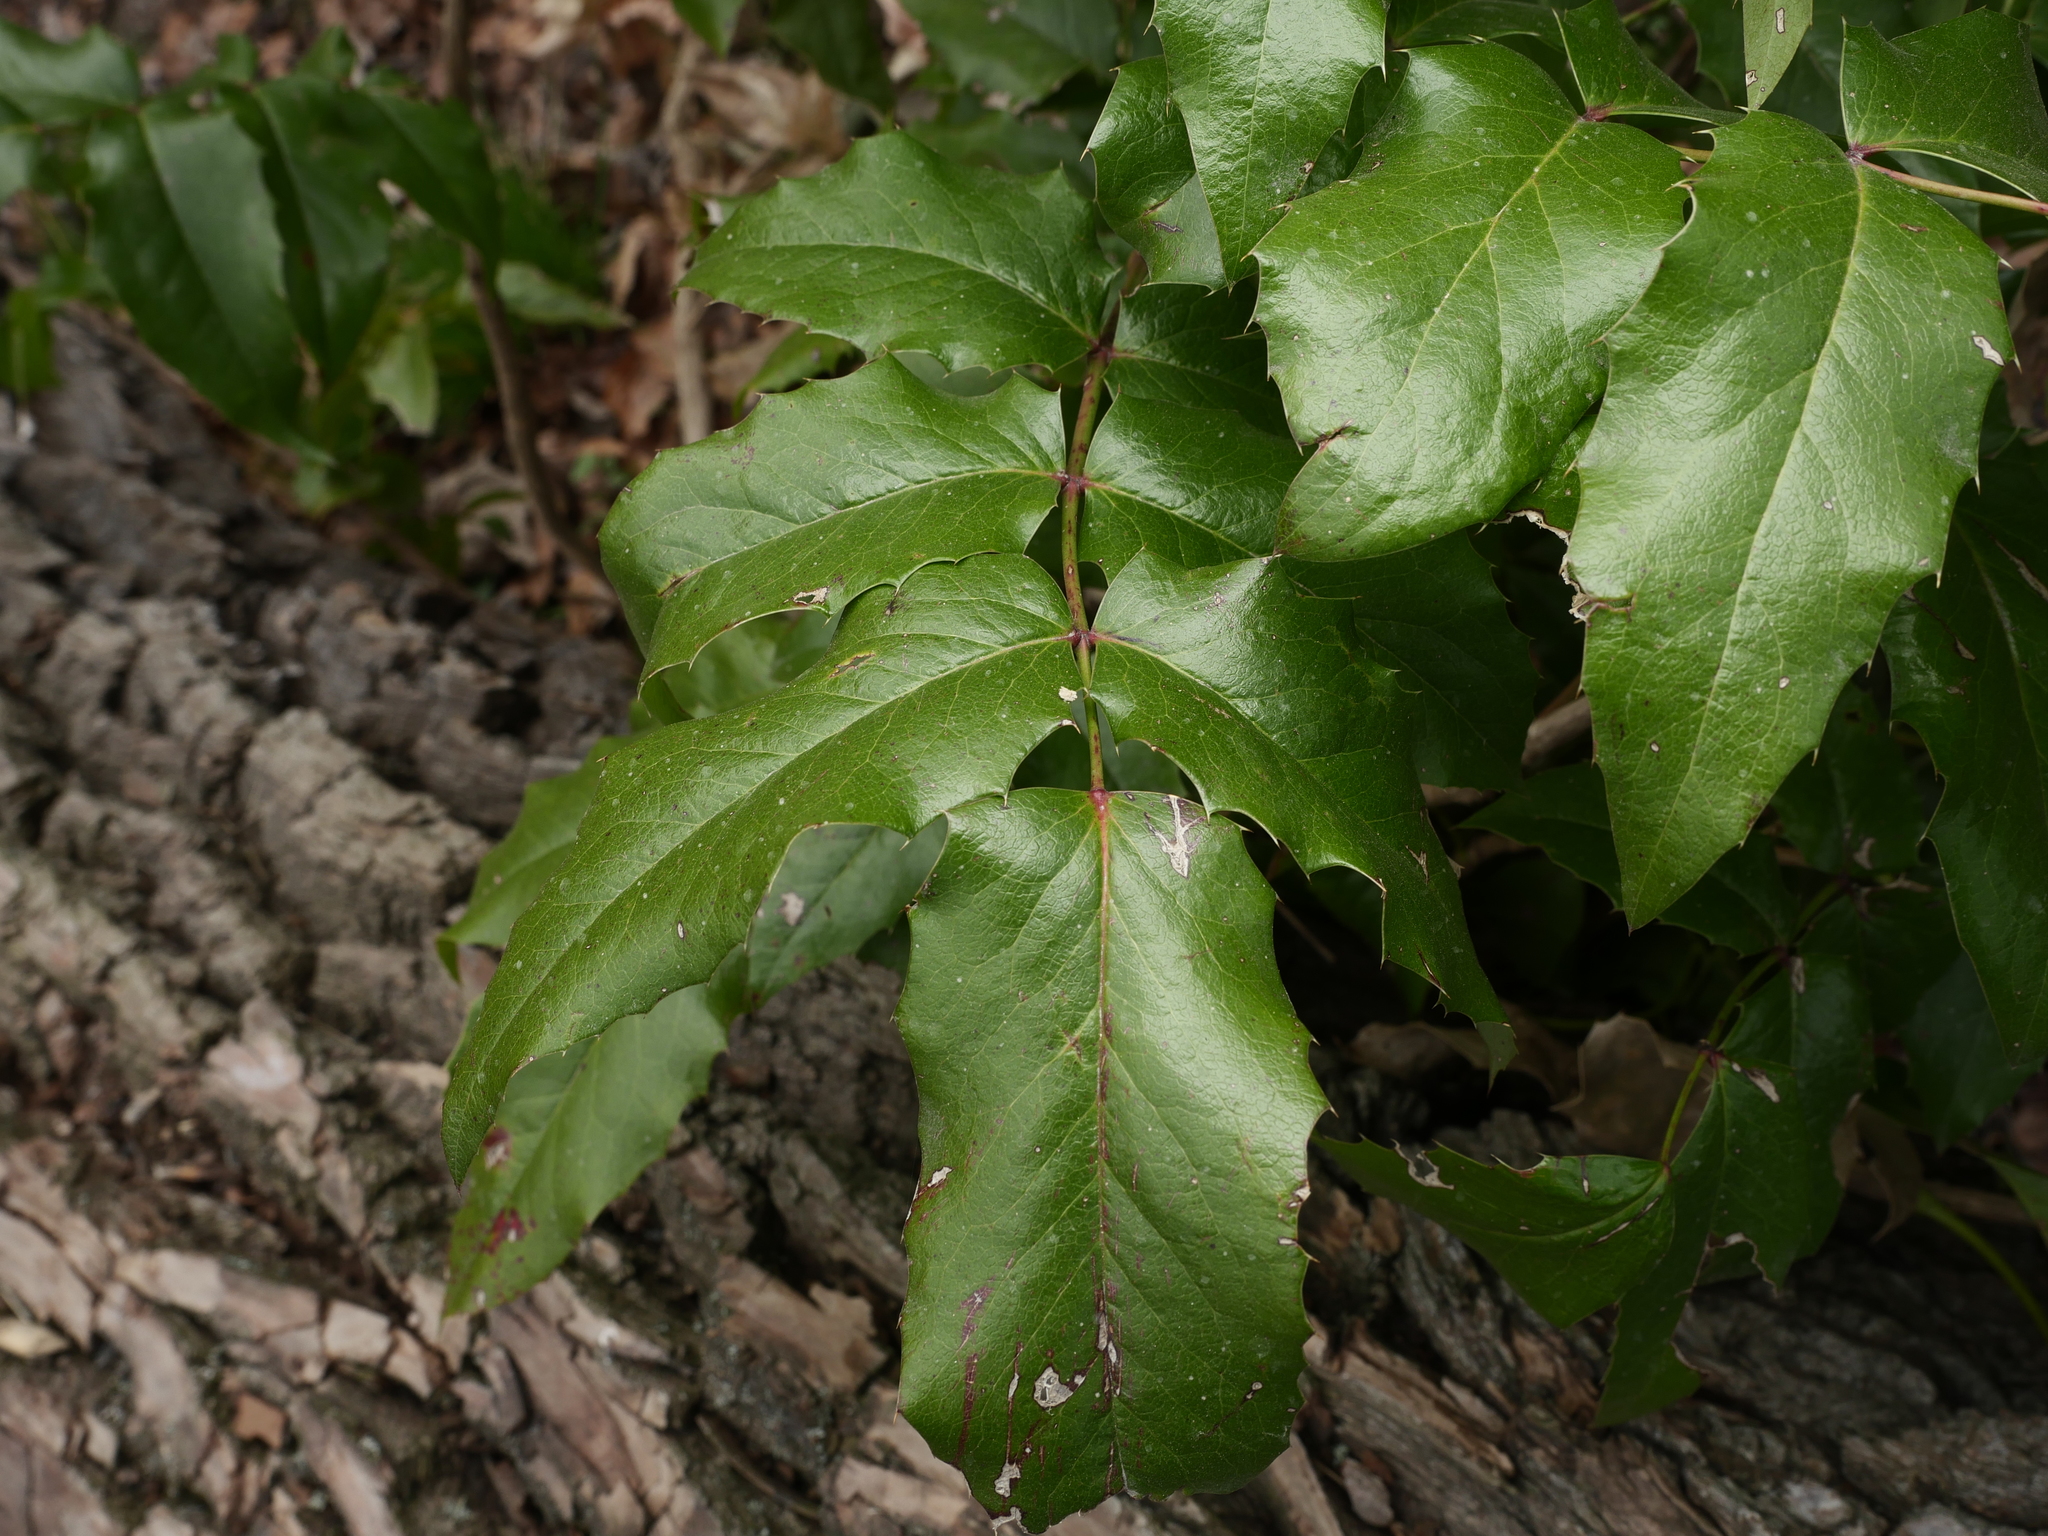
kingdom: Plantae
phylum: Tracheophyta
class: Magnoliopsida
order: Ranunculales
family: Berberidaceae
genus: Mahonia
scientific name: Mahonia aquifolium
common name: Oregon-grape
